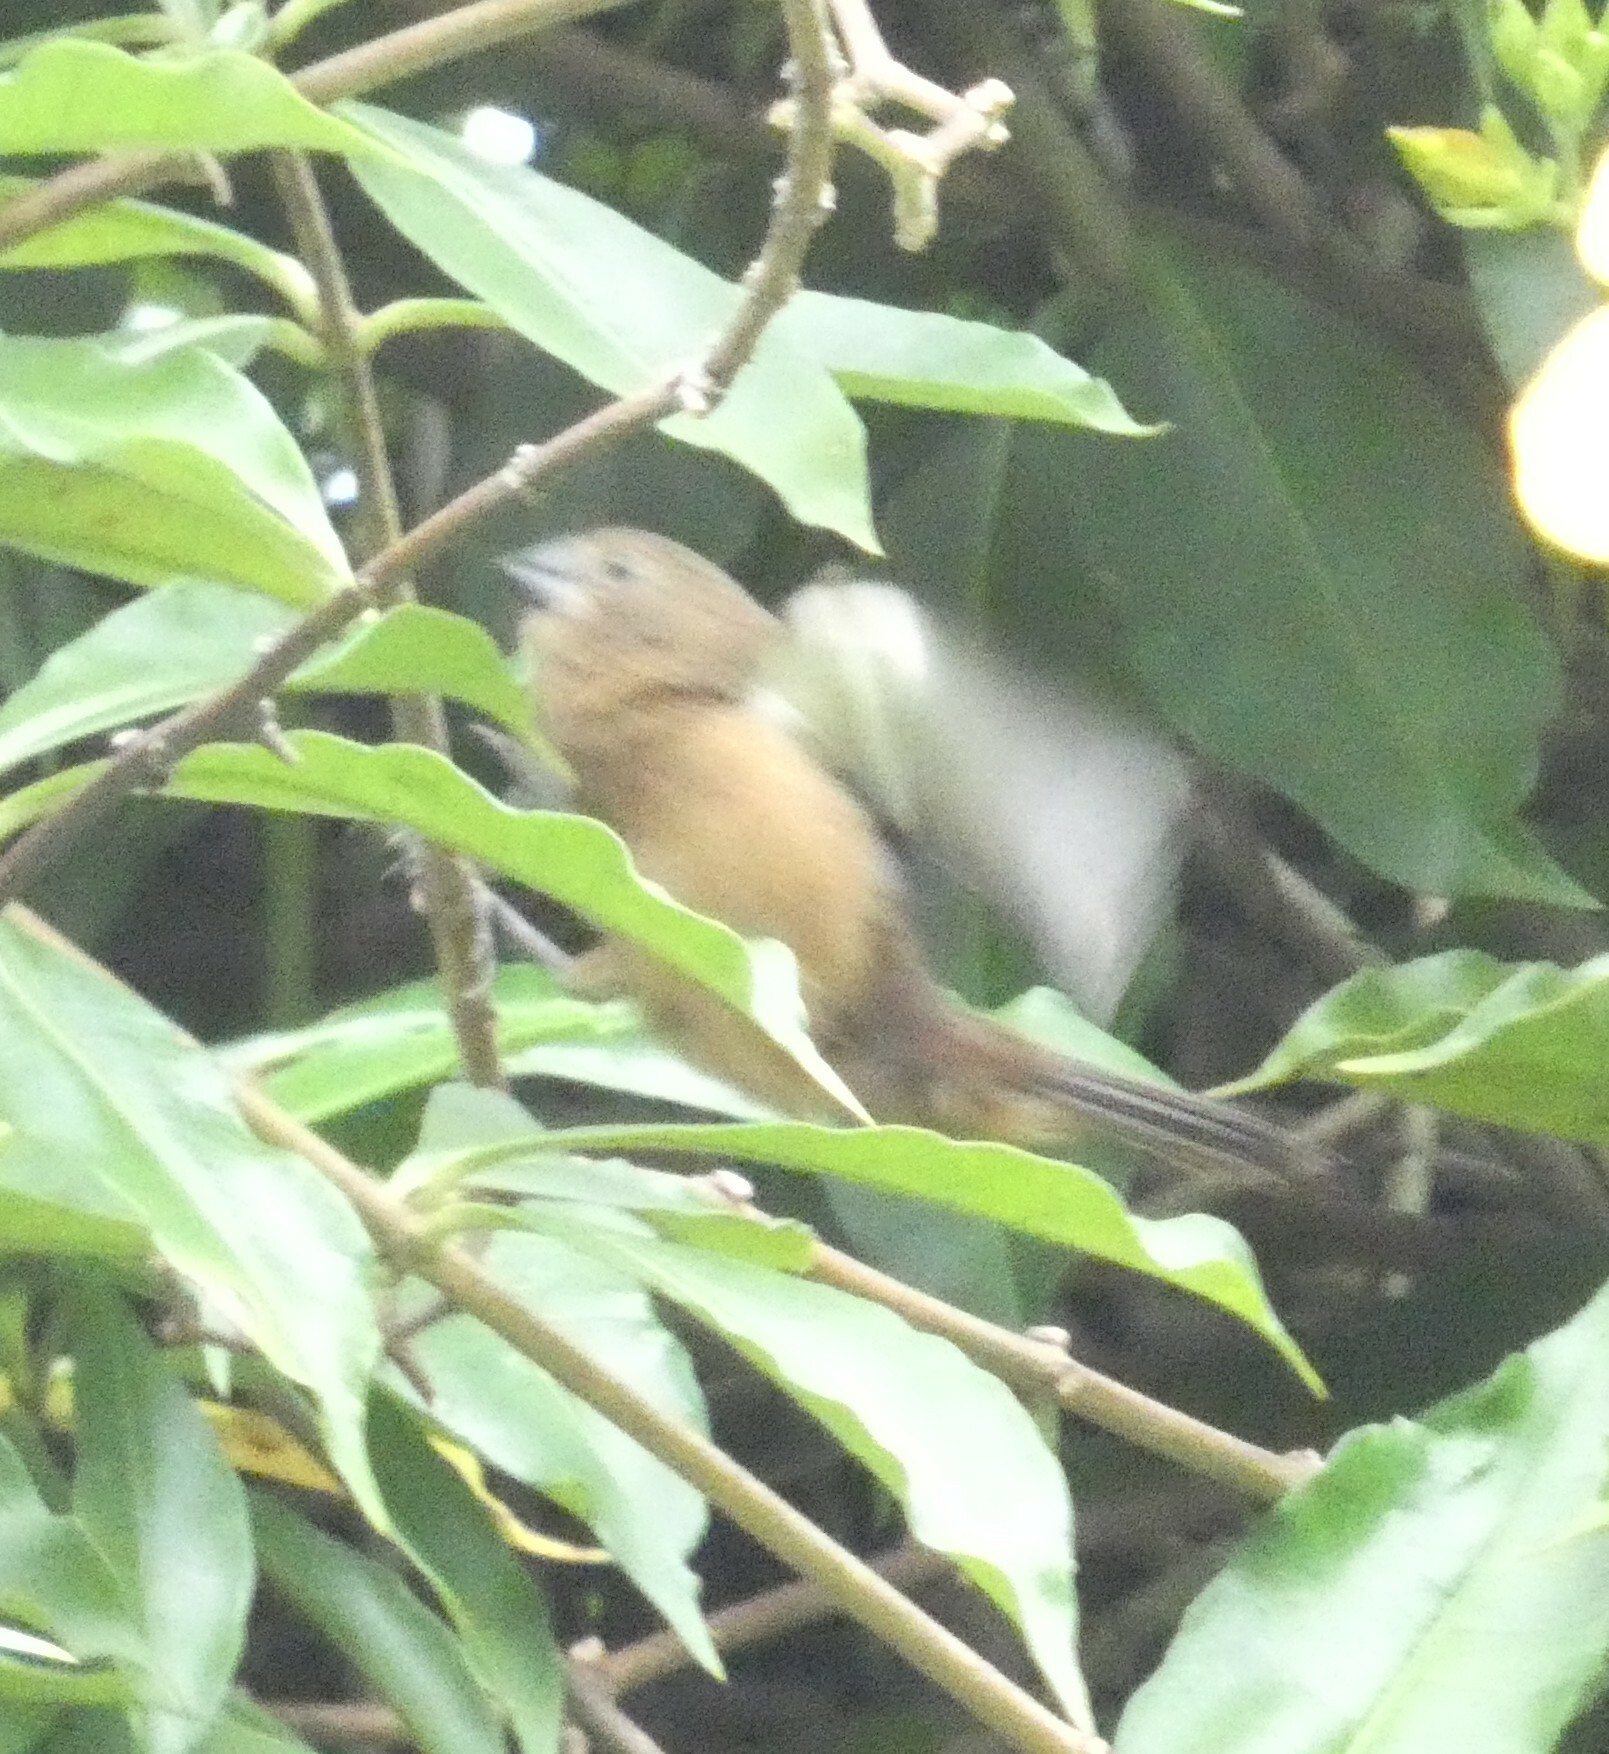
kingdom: Animalia
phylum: Chordata
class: Aves
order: Passeriformes
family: Thraupidae
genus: Sporophila
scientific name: Sporophila angolensis
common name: Chestnut-bellied seed-finch
